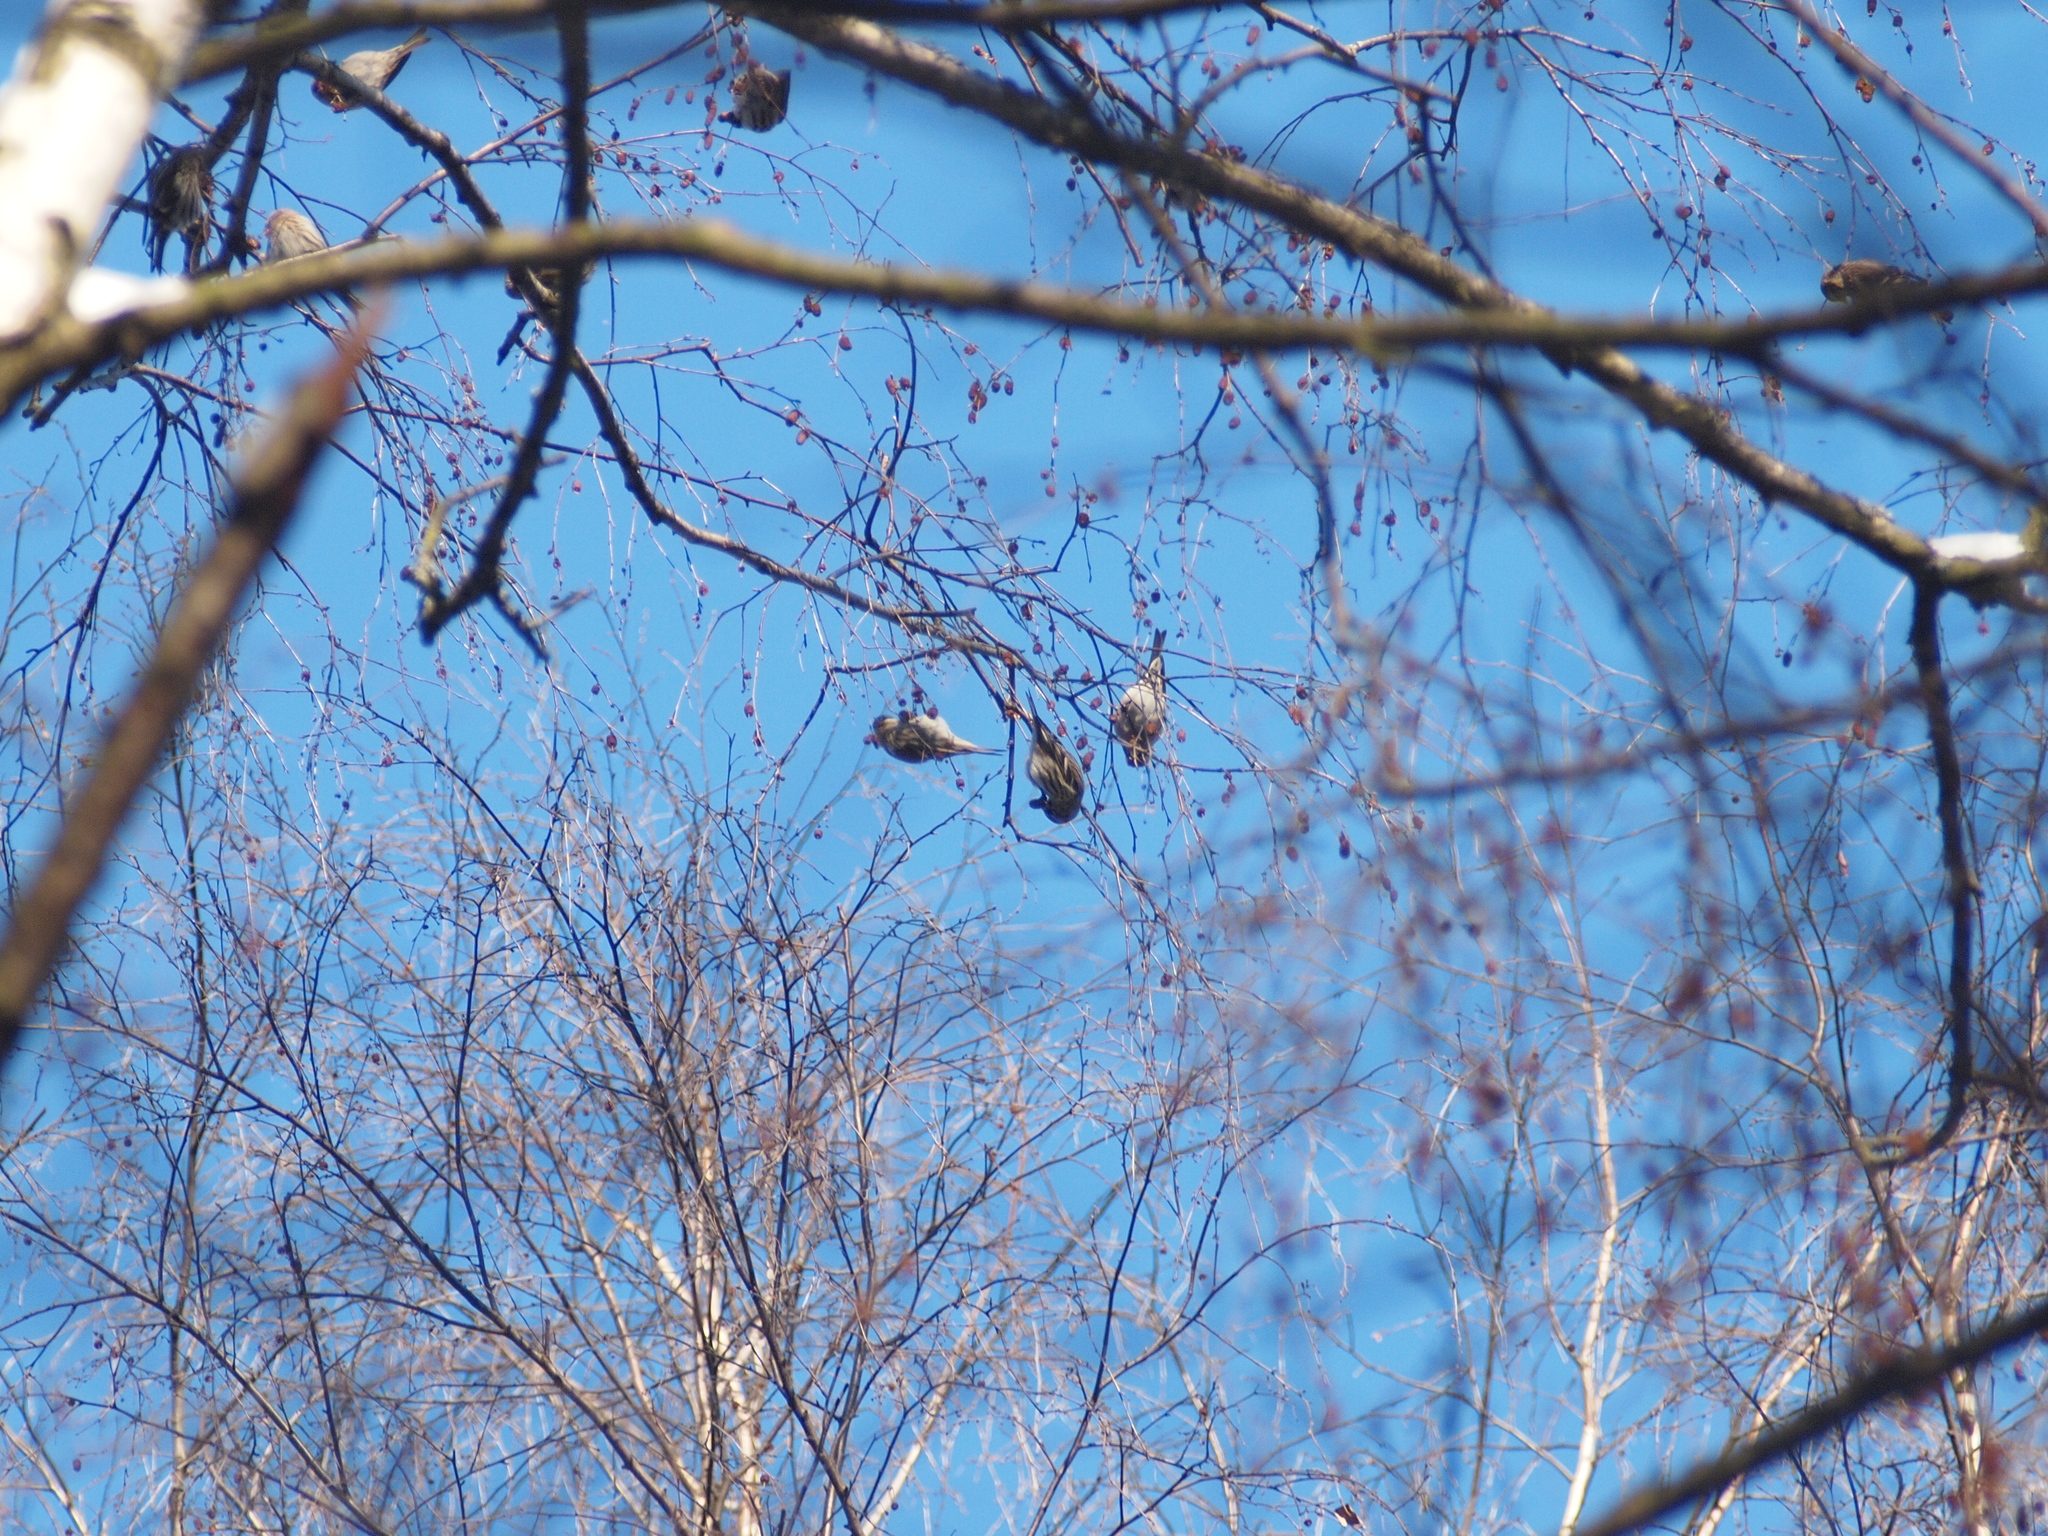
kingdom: Animalia
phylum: Chordata
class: Aves
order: Passeriformes
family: Fringillidae
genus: Acanthis
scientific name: Acanthis flammea
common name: Common redpoll
